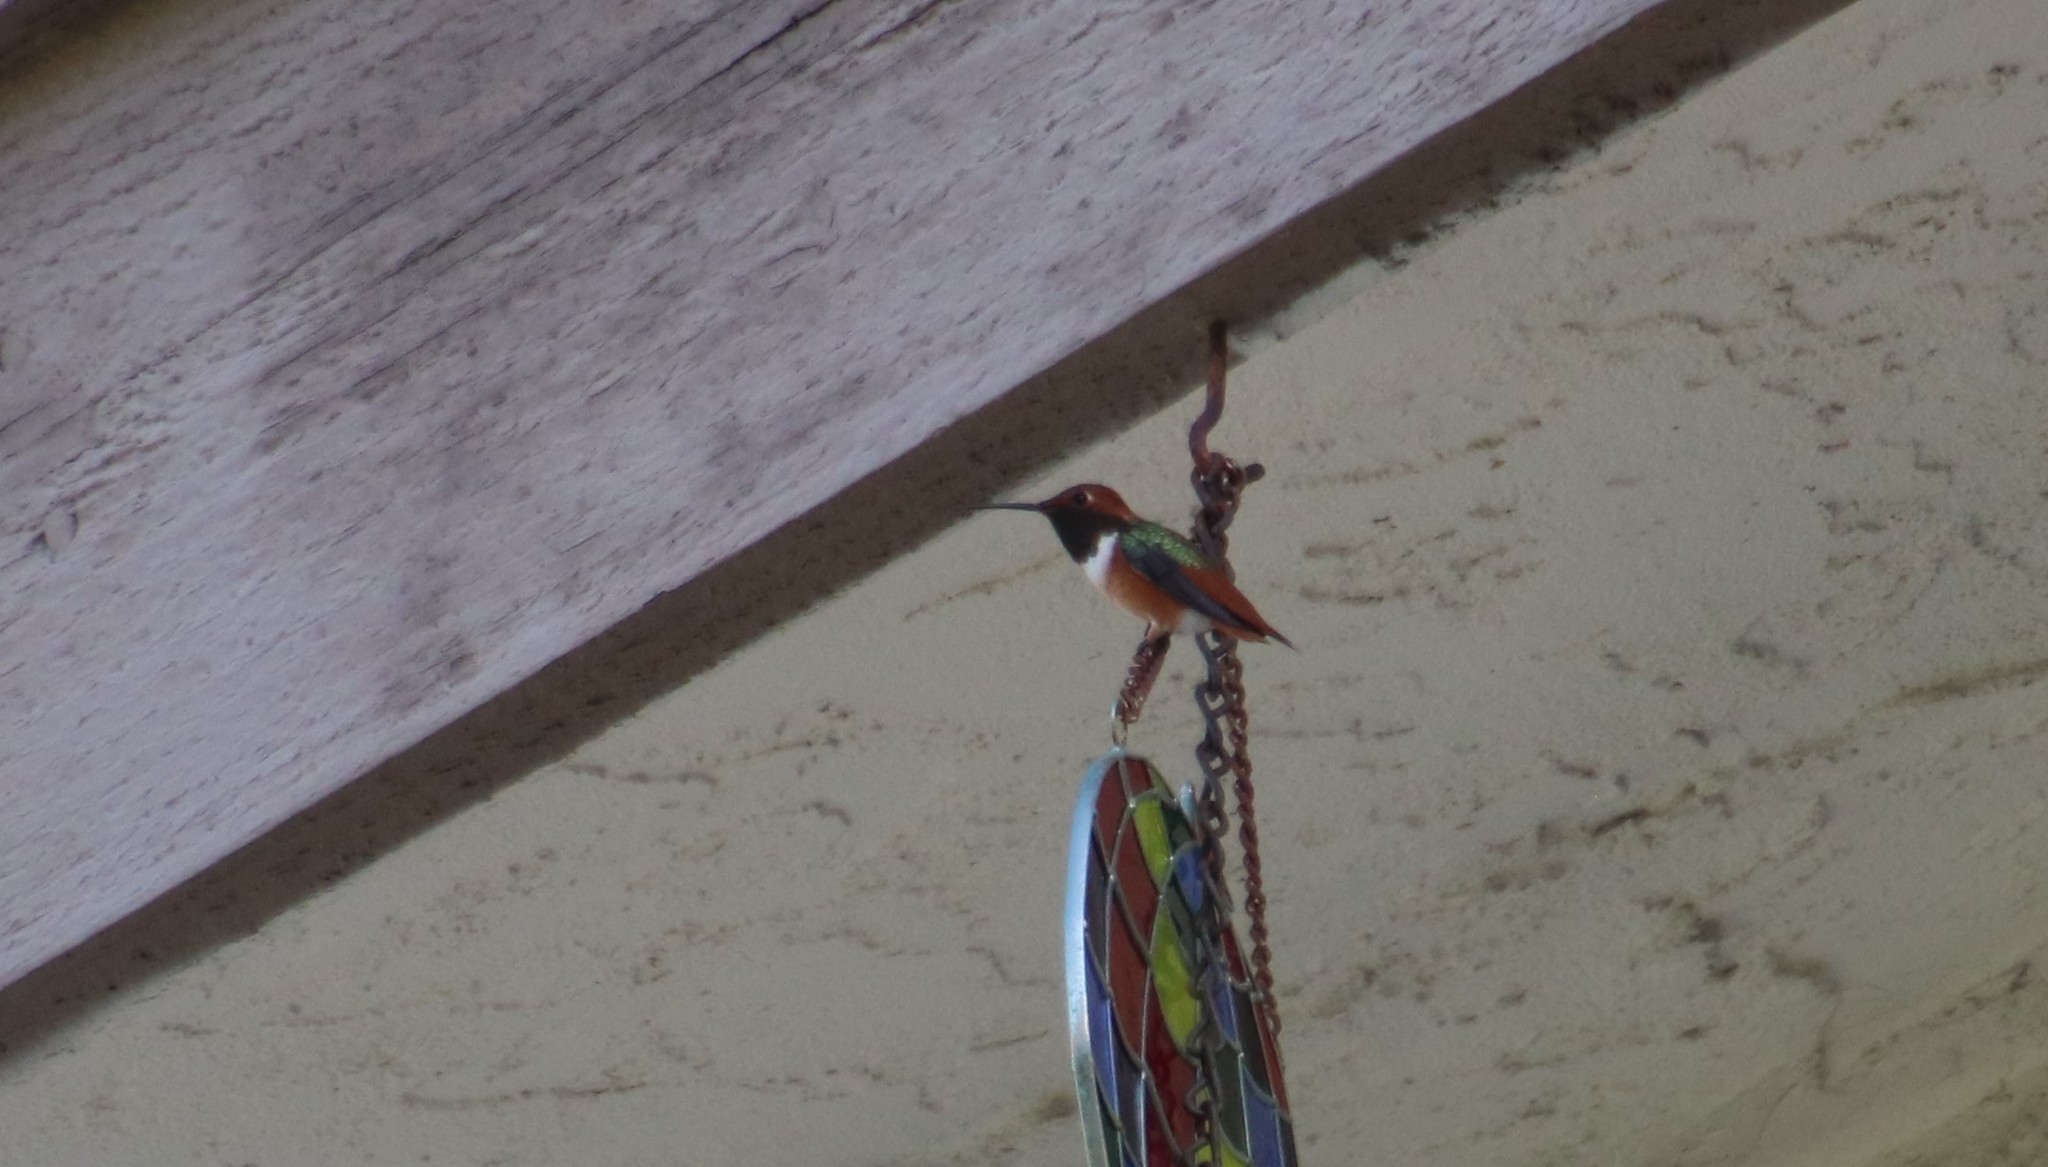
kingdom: Animalia
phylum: Chordata
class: Aves
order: Apodiformes
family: Trochilidae
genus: Selasphorus
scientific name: Selasphorus sasin
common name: Allen's hummingbird
